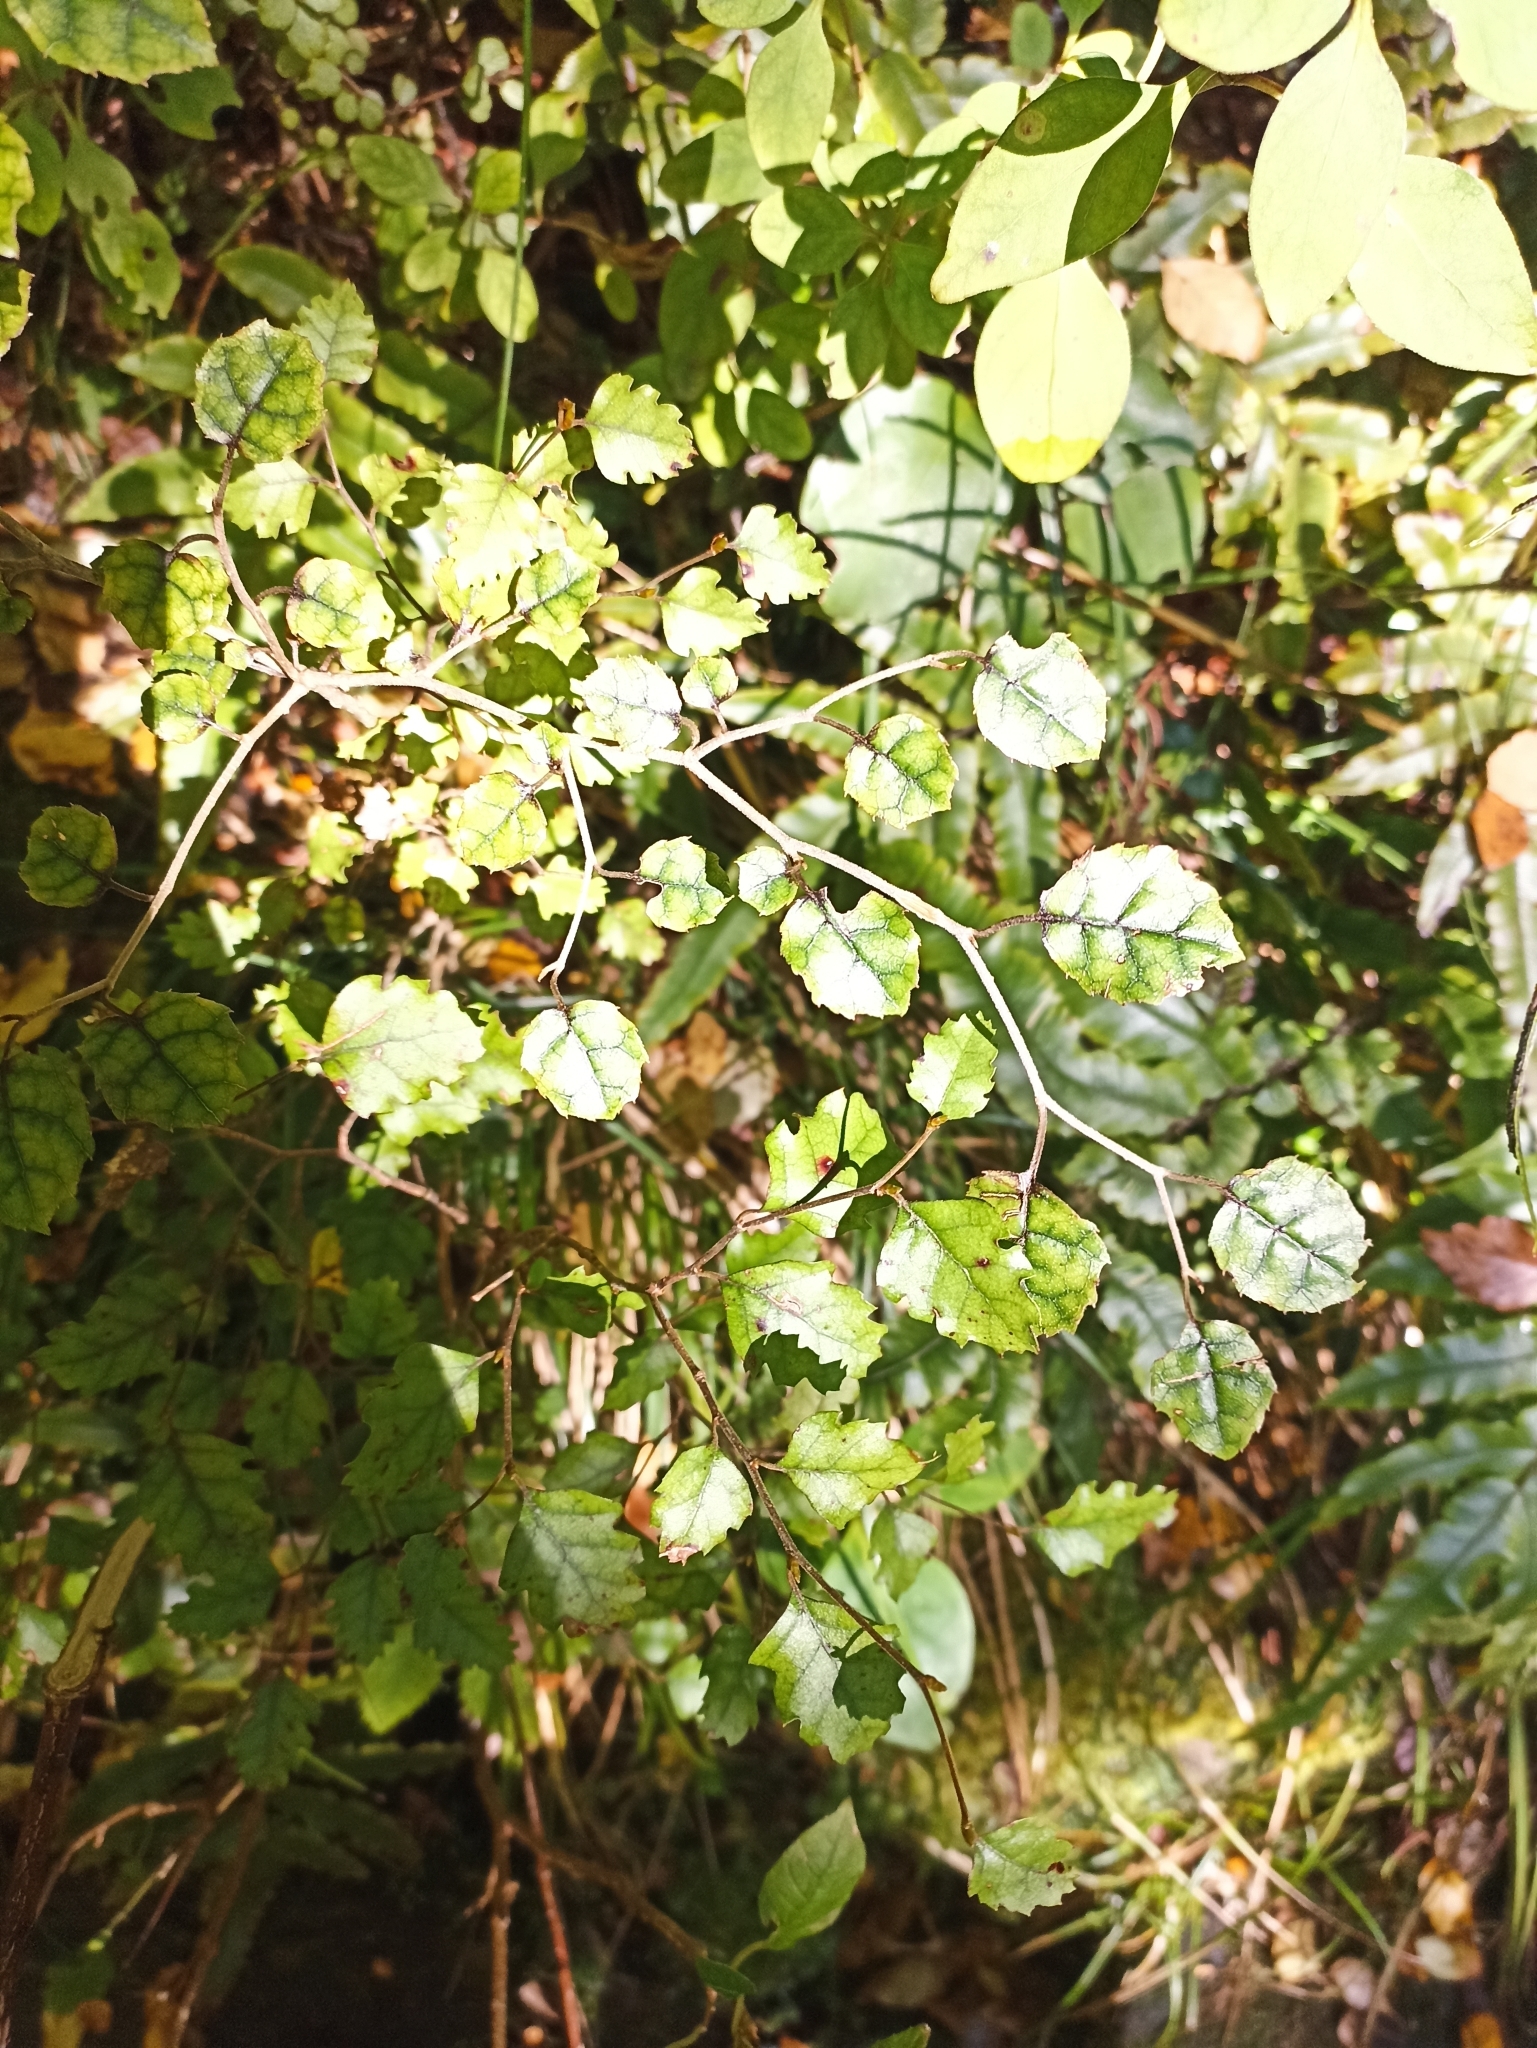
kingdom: Plantae
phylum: Tracheophyta
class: Magnoliopsida
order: Asterales
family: Rousseaceae
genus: Carpodetus
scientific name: Carpodetus serratus
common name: White mapau
